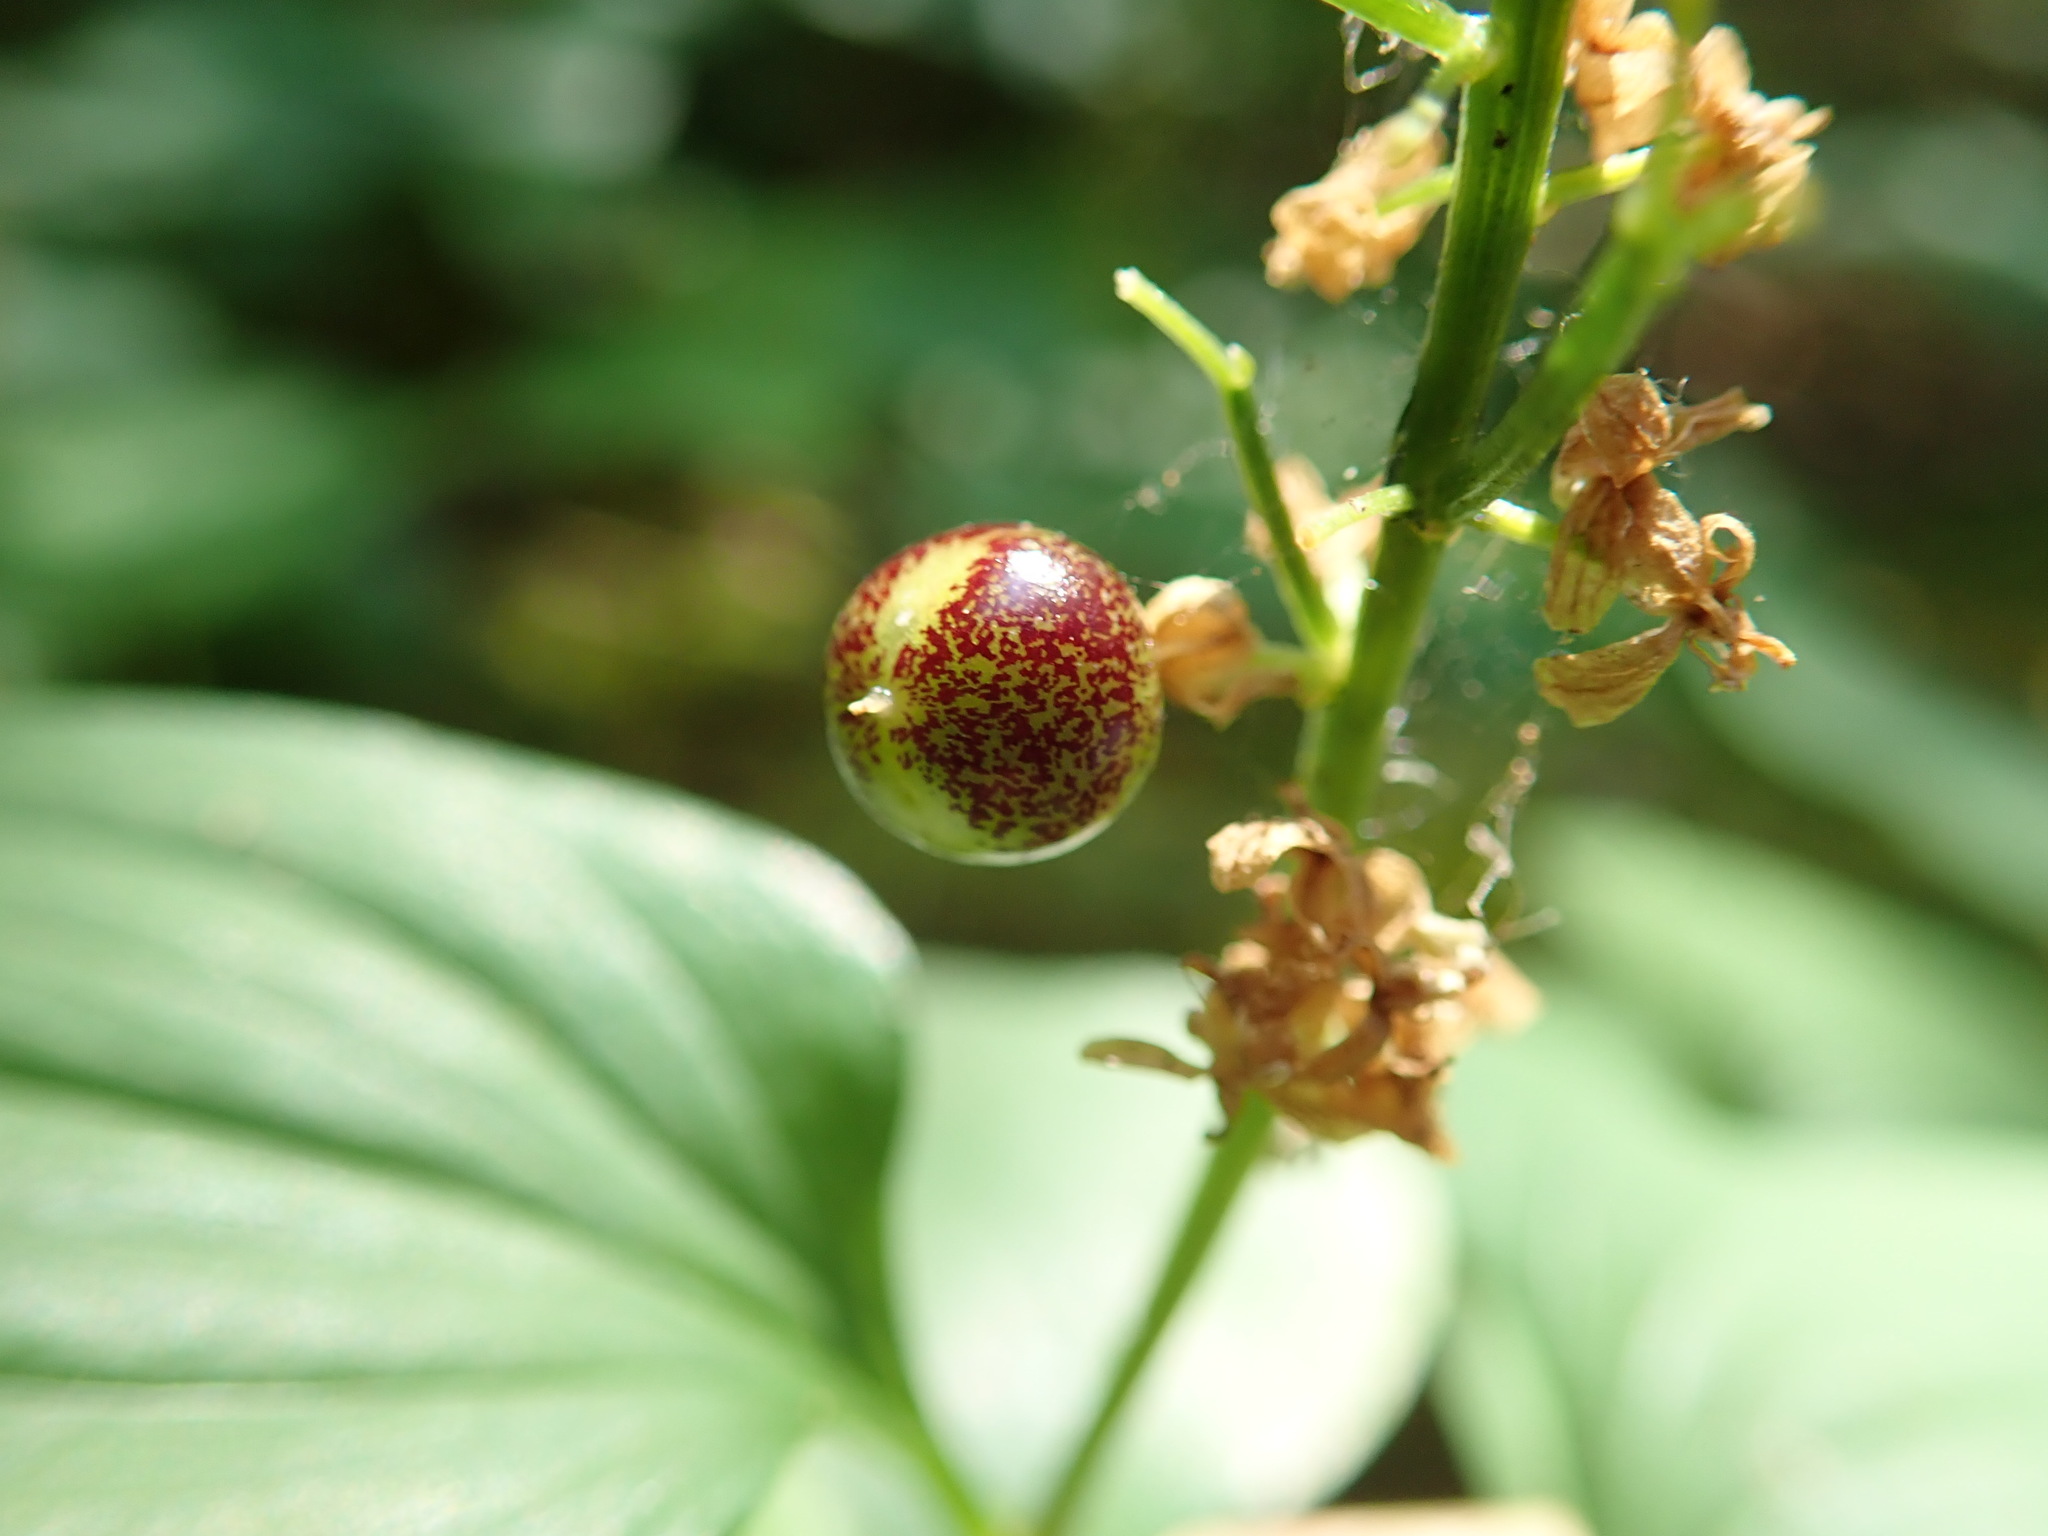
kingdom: Plantae
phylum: Tracheophyta
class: Liliopsida
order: Asparagales
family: Asparagaceae
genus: Maianthemum
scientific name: Maianthemum dilatatum
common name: False lily-of-the-valley
